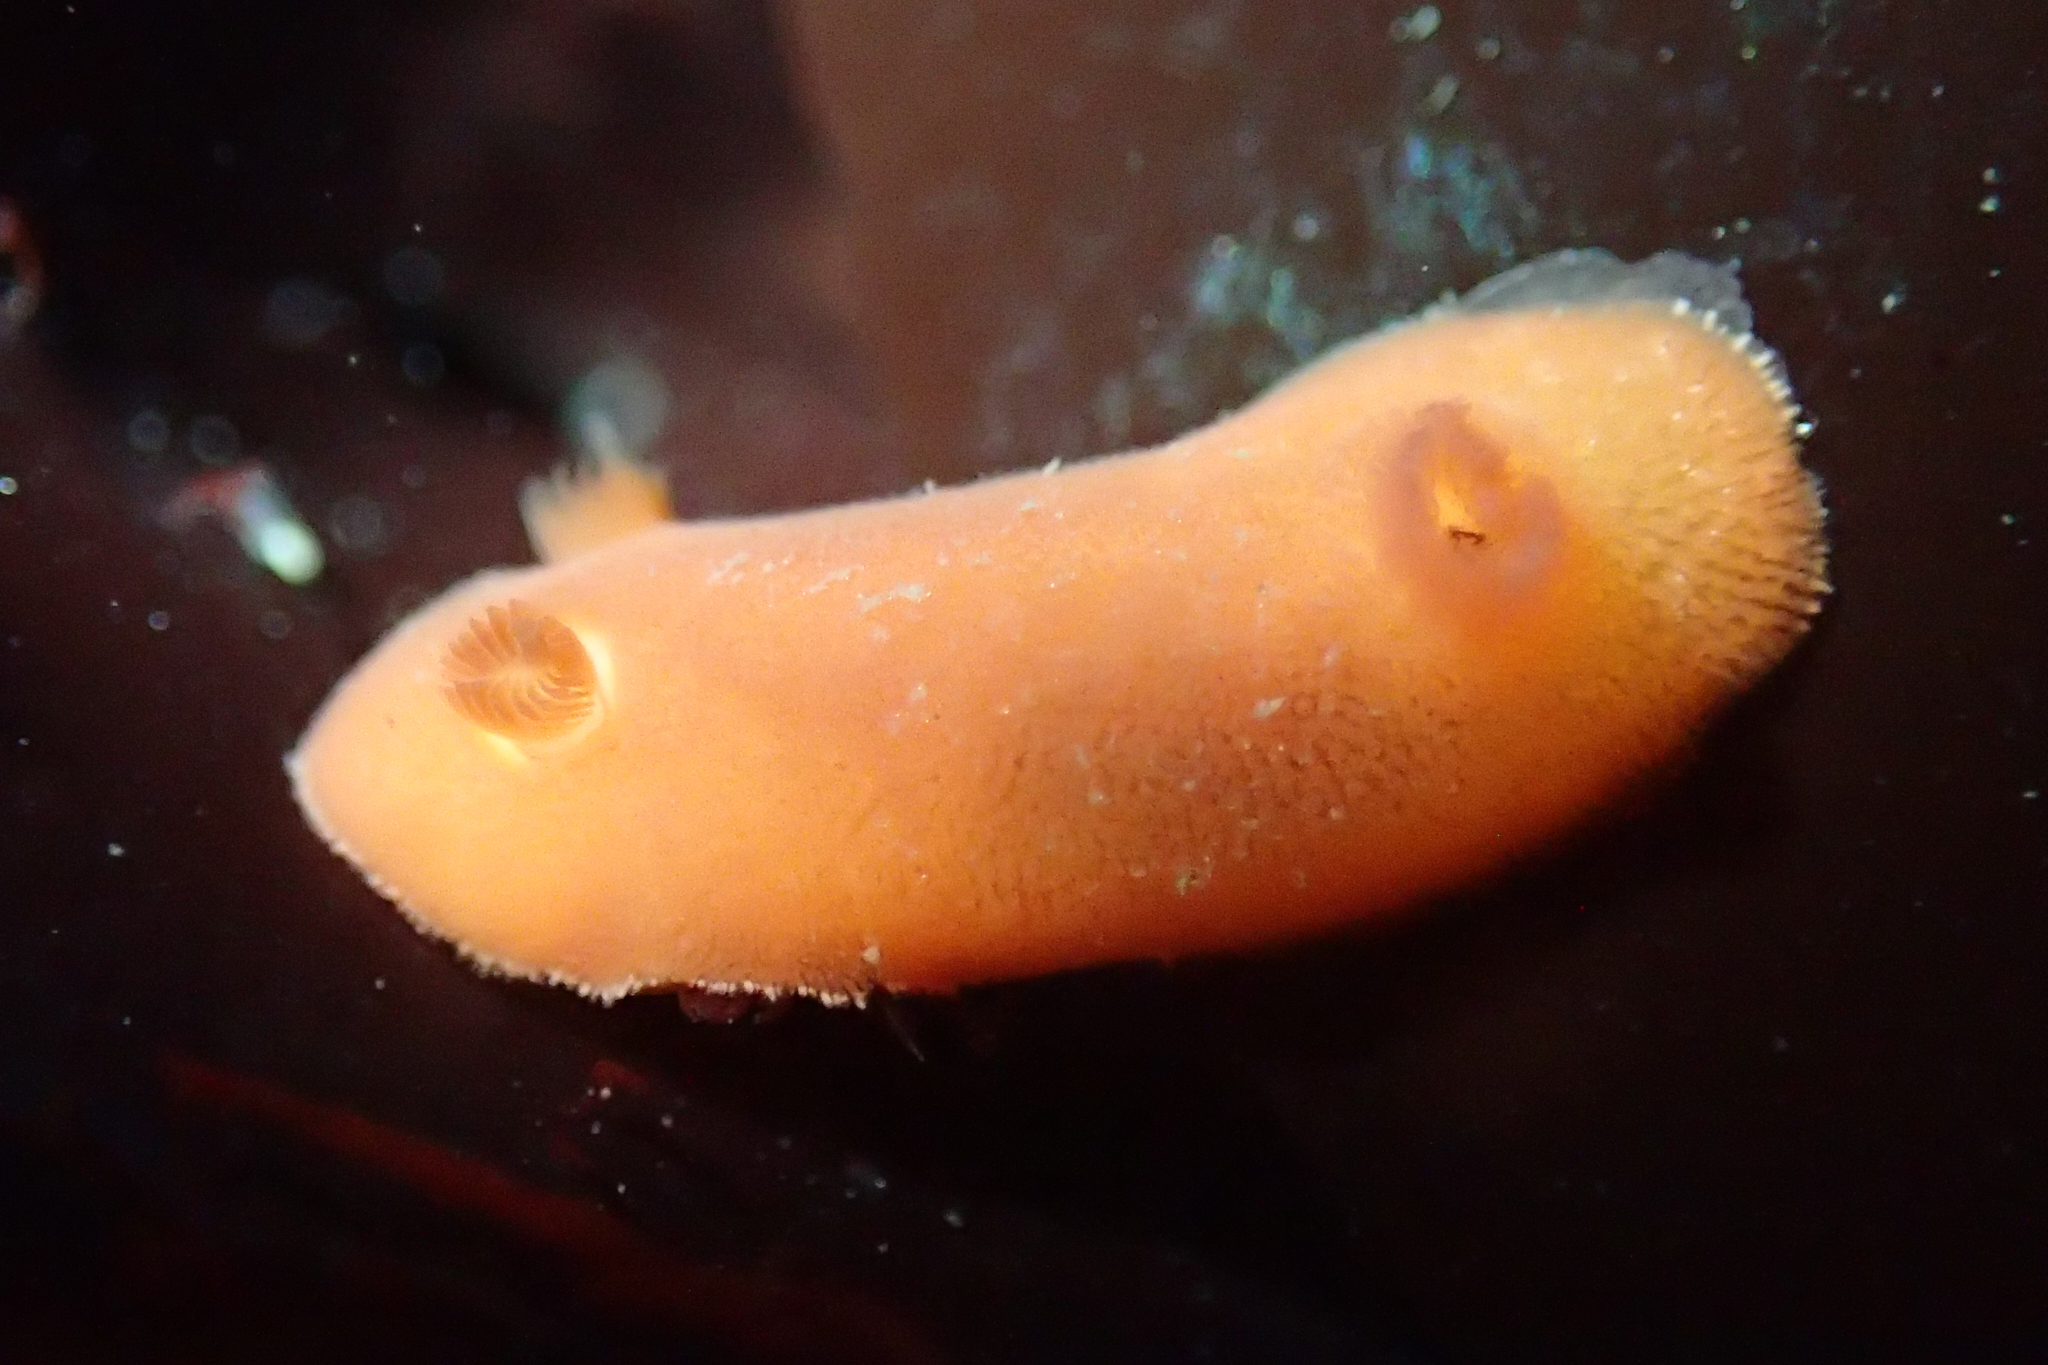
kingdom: Animalia
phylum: Mollusca
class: Gastropoda
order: Nudibranchia
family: Discodorididae
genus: Rostanga
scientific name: Rostanga pulchra
